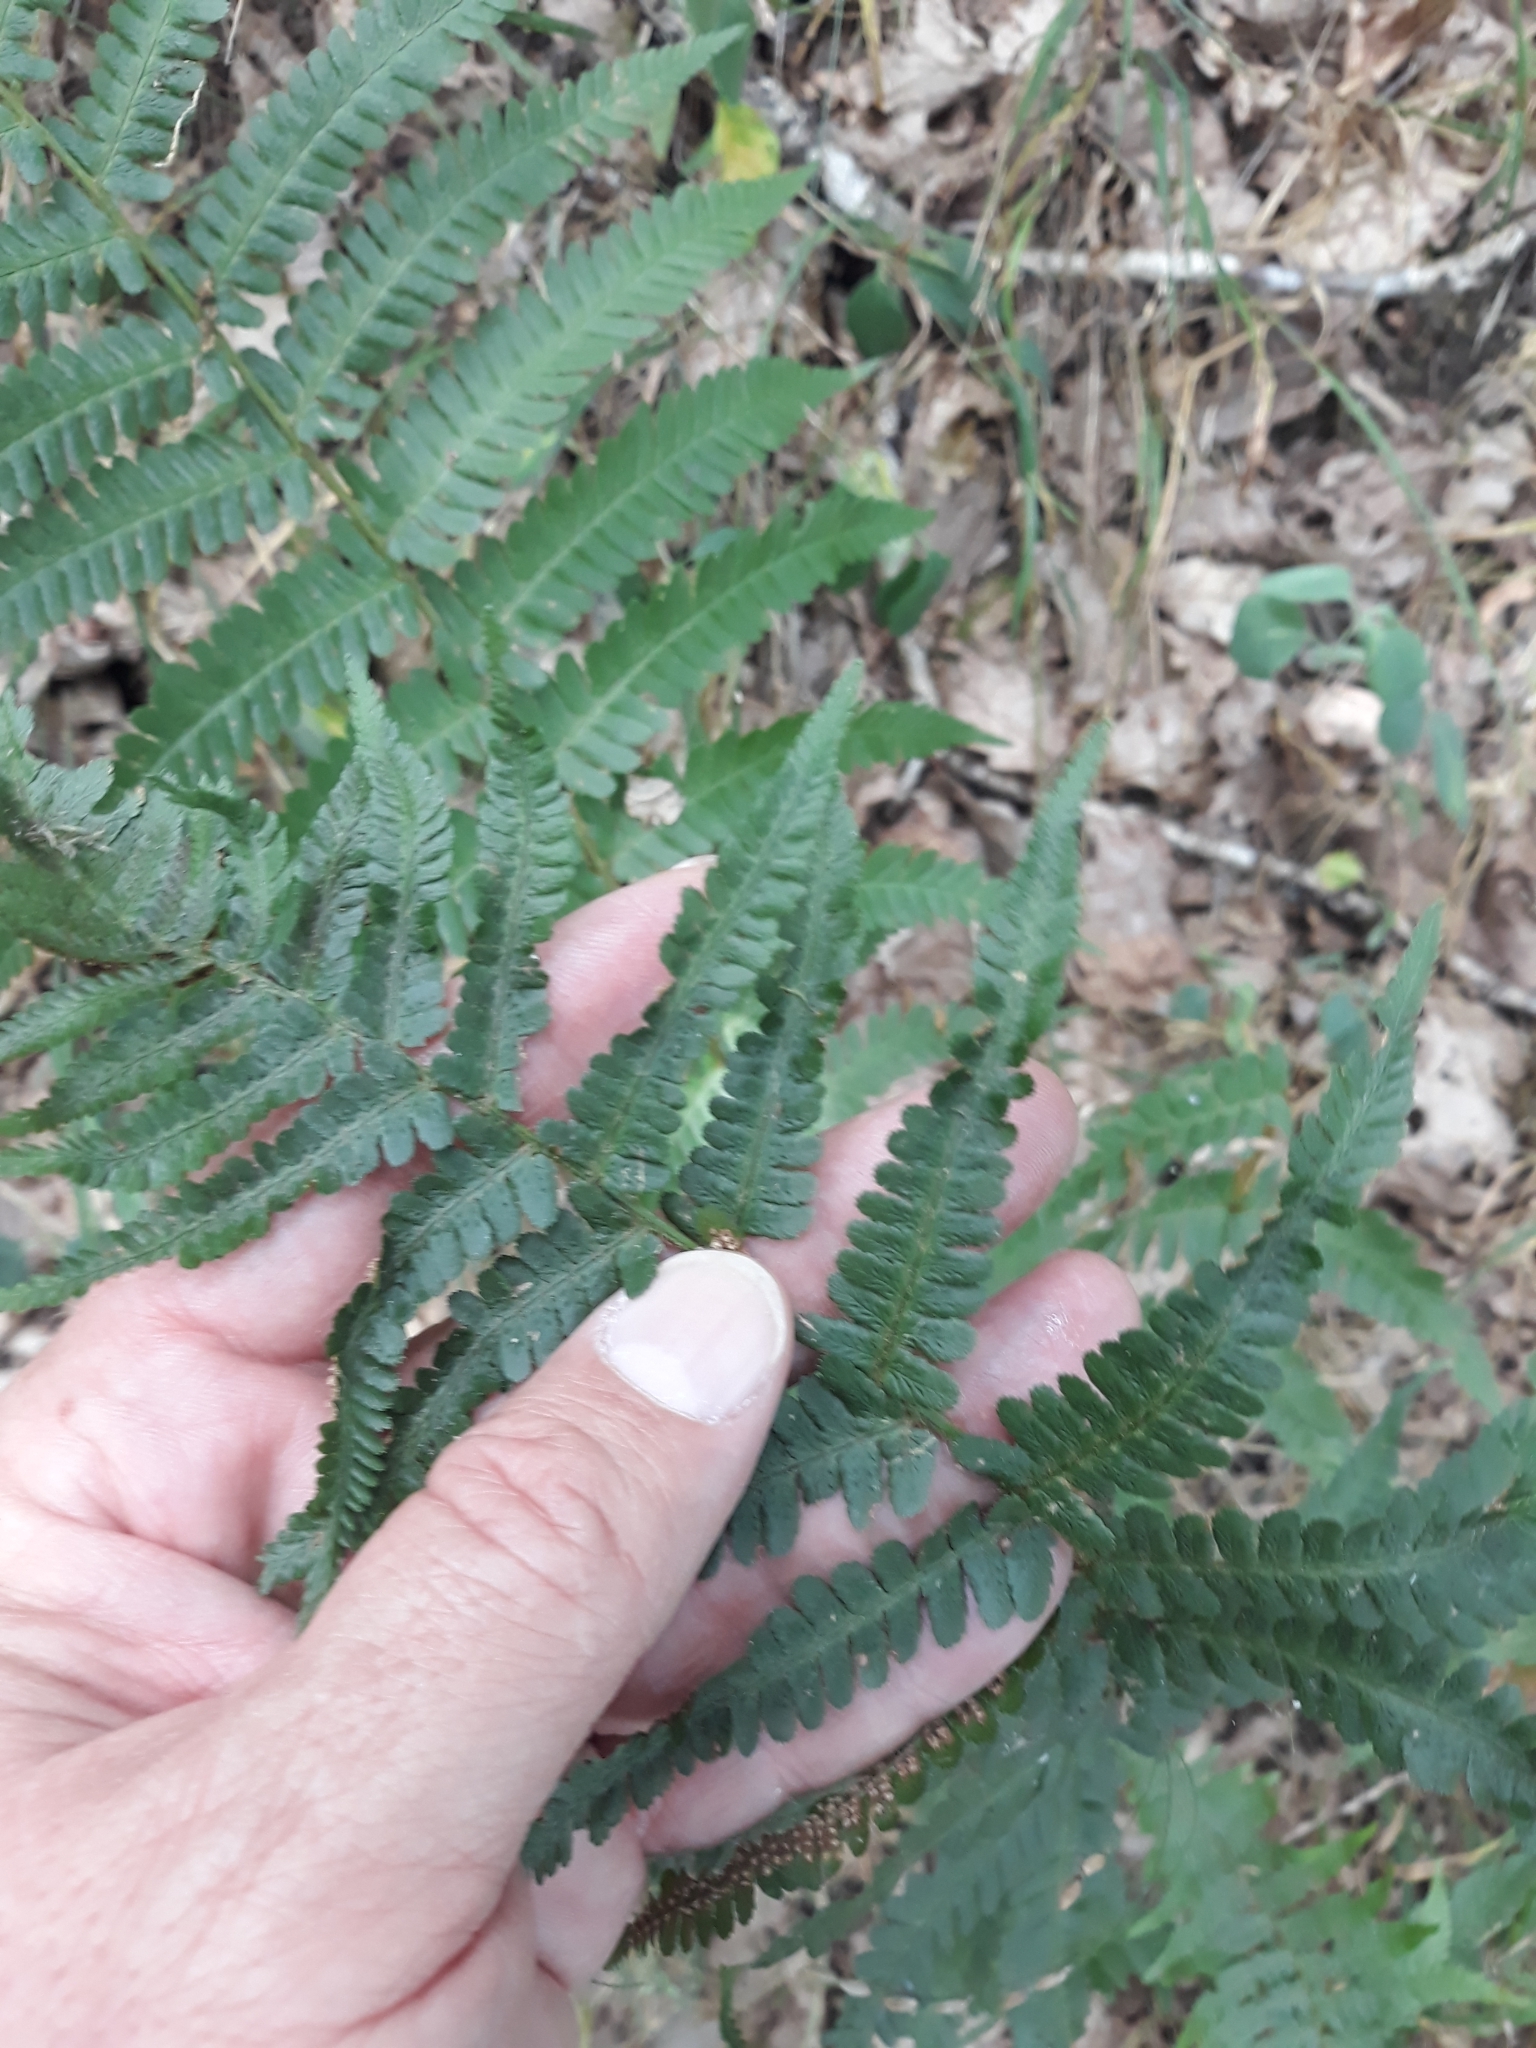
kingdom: Plantae
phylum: Tracheophyta
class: Polypodiopsida
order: Polypodiales
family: Dryopteridaceae
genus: Dryopteris
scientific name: Dryopteris filix-mas
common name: Male fern
